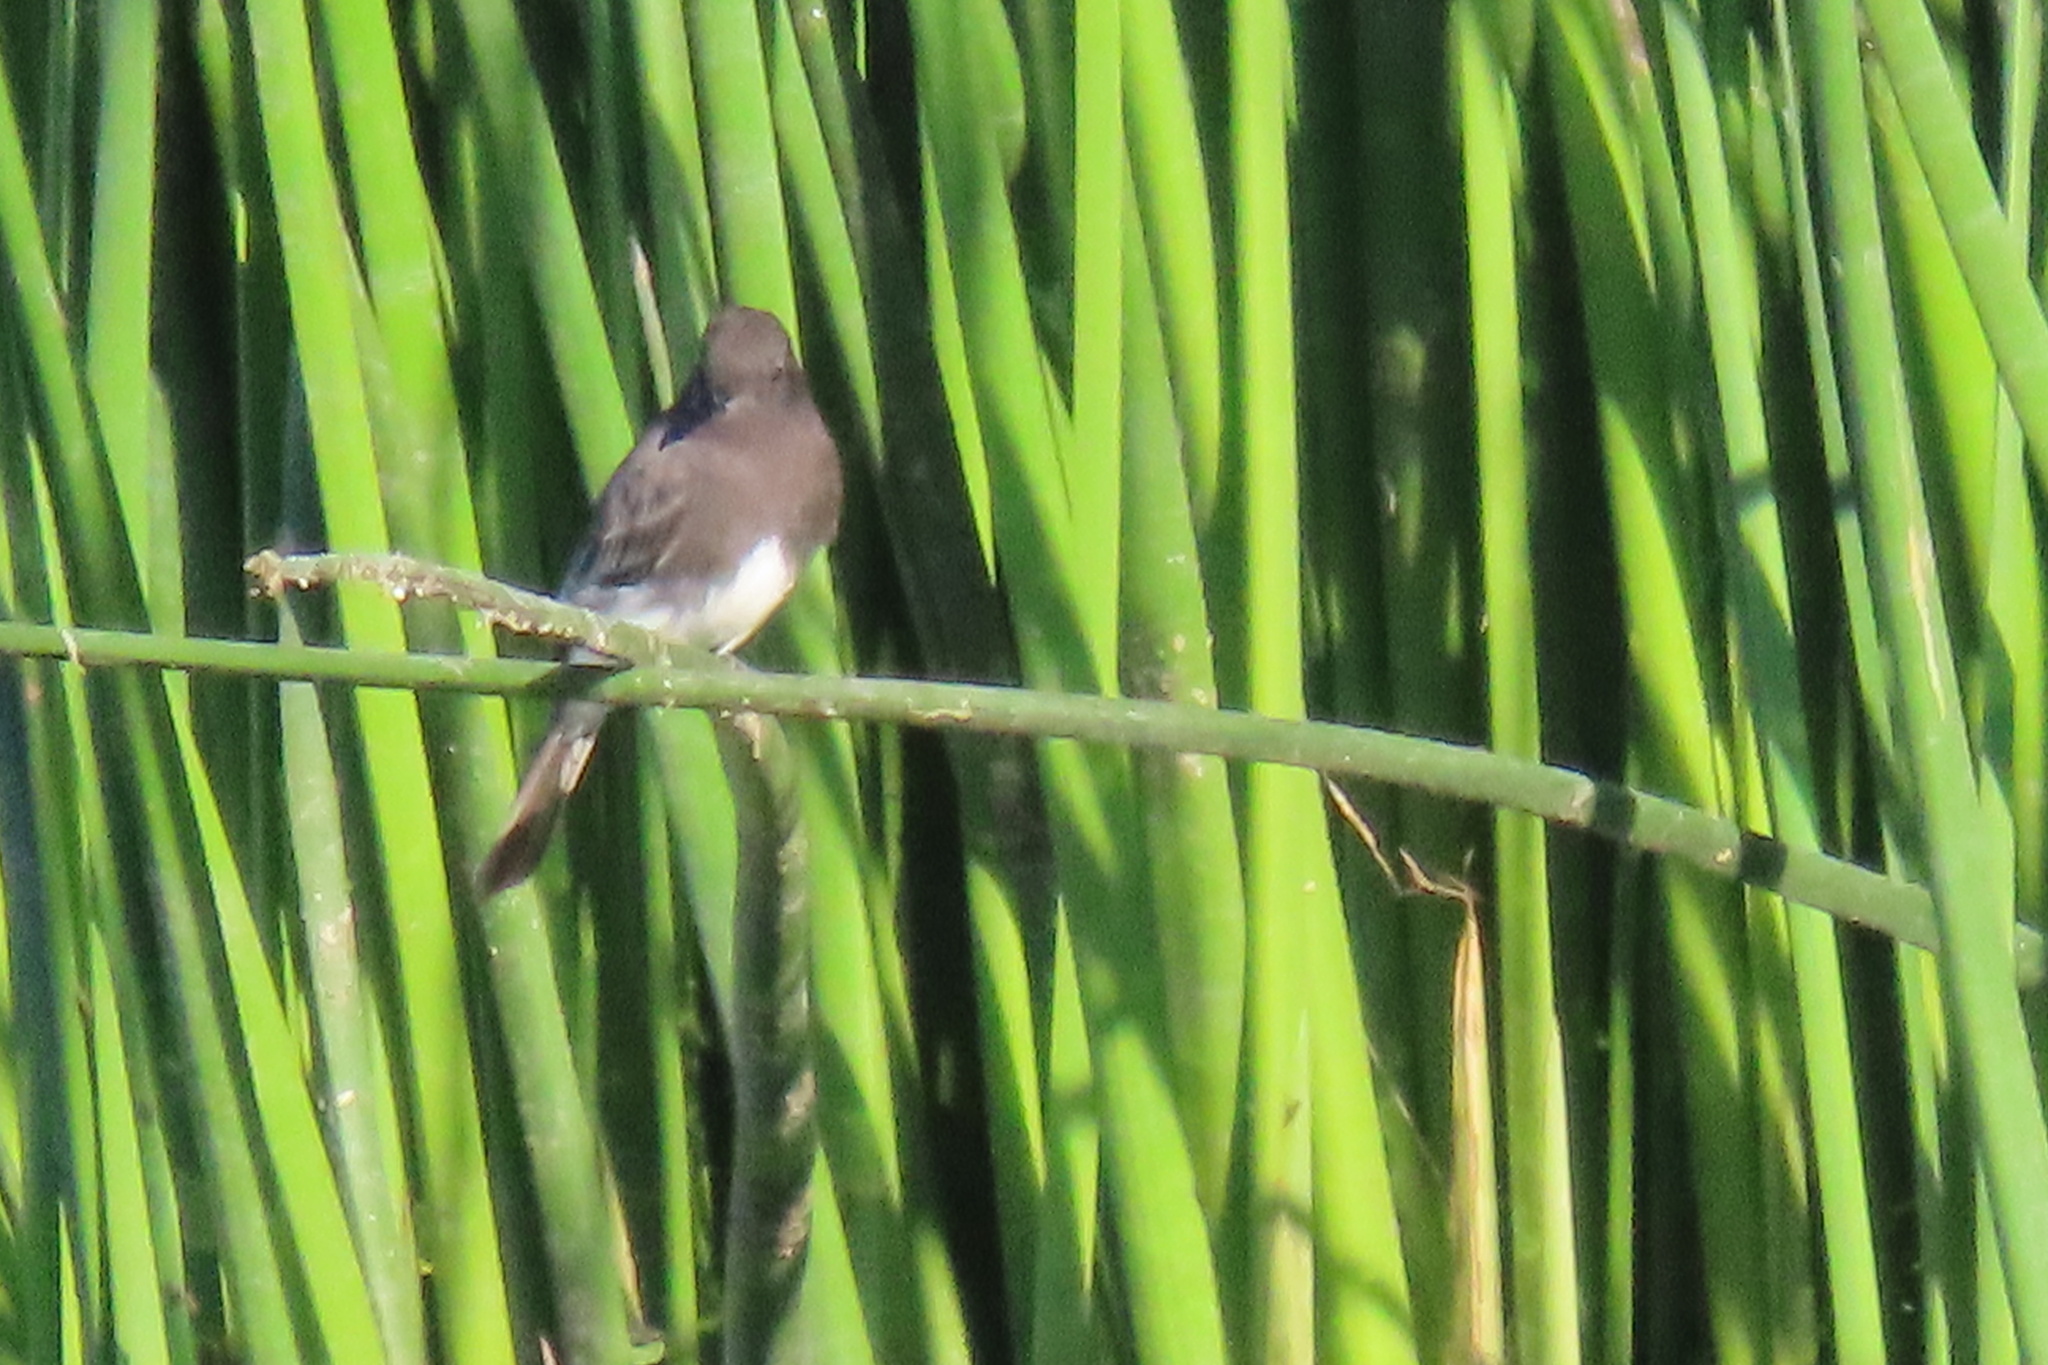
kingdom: Animalia
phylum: Chordata
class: Aves
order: Passeriformes
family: Tyrannidae
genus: Sayornis
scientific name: Sayornis nigricans
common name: Black phoebe
